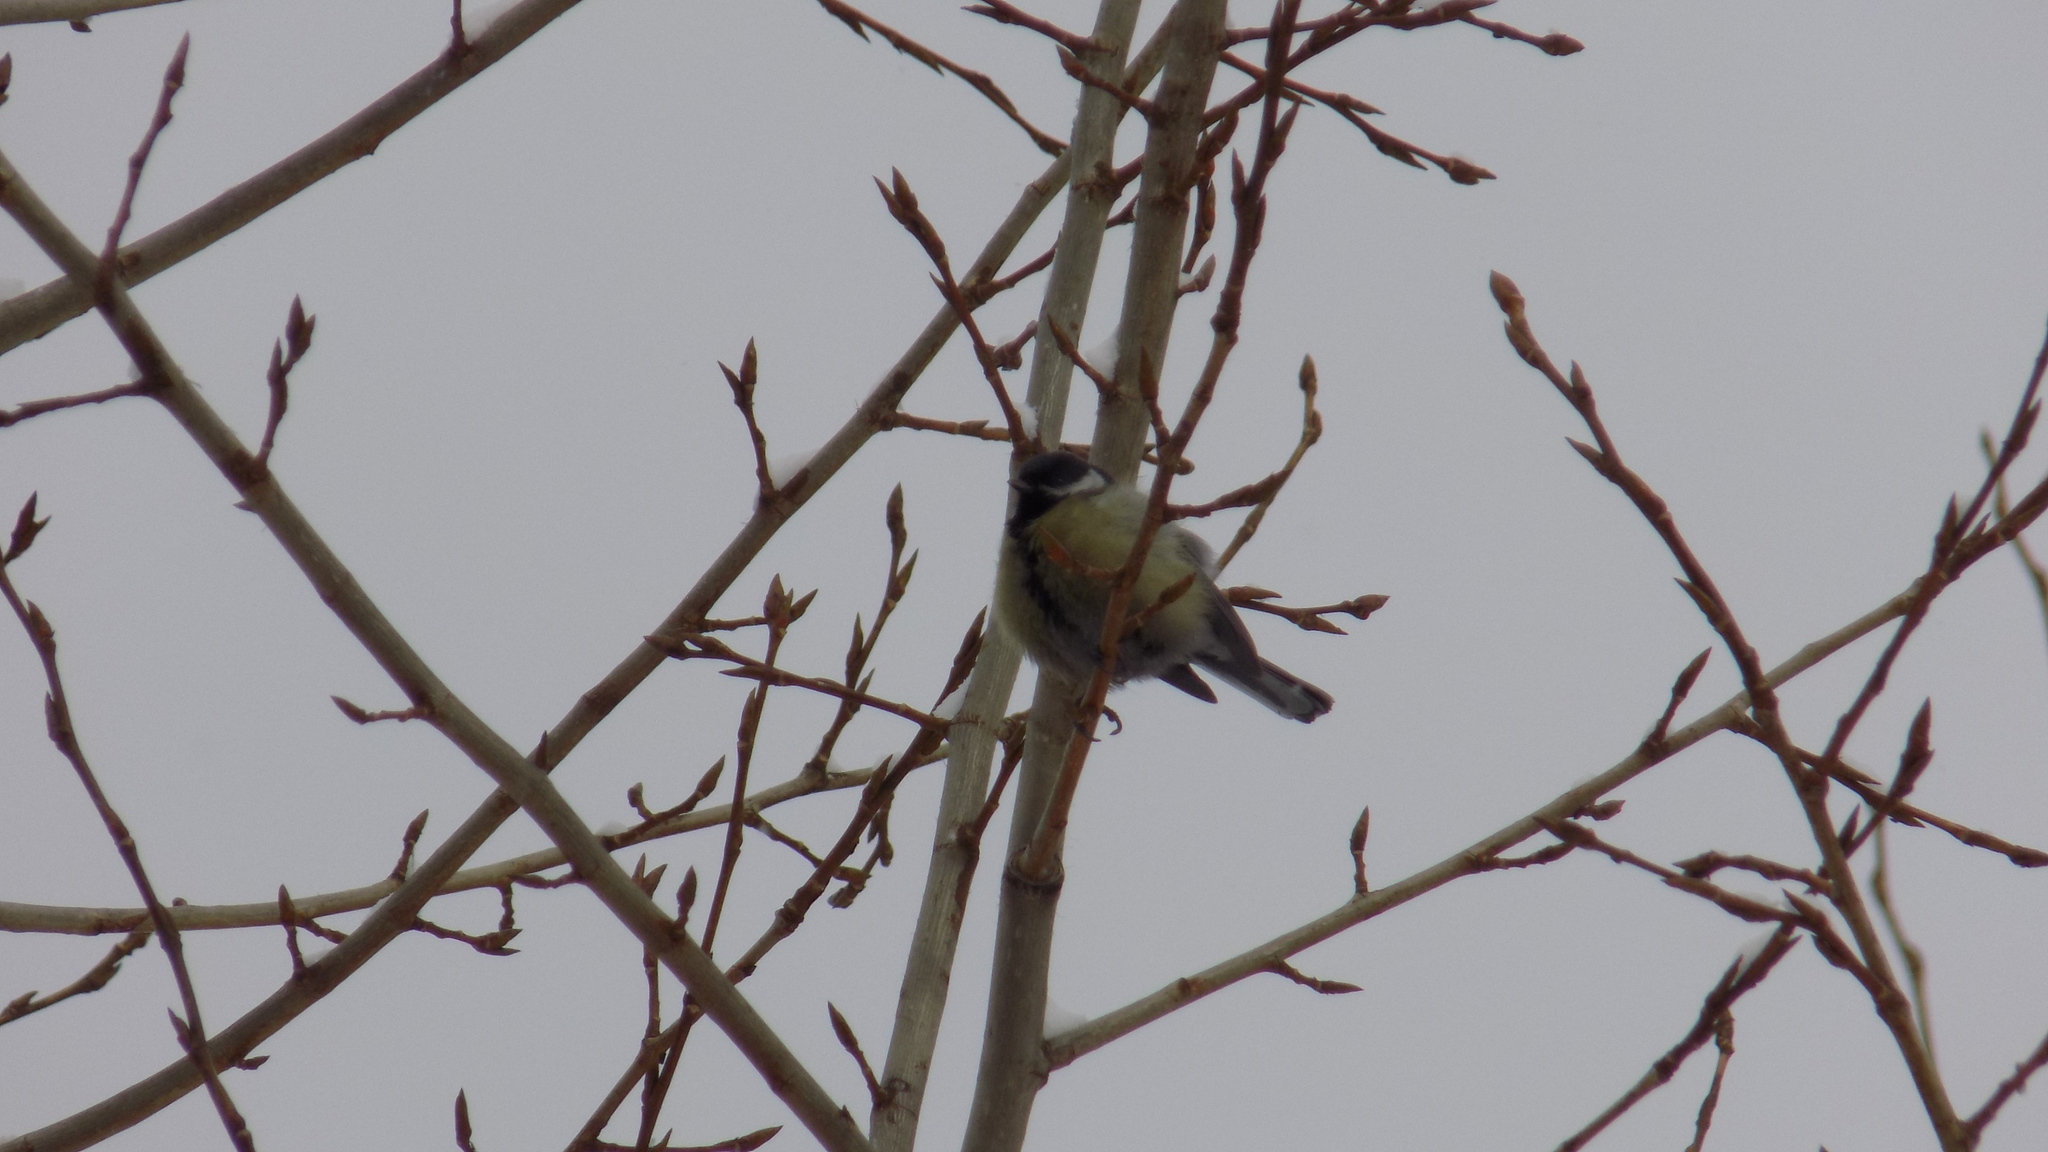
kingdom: Animalia
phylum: Chordata
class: Aves
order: Passeriformes
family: Paridae
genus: Parus
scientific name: Parus major
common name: Great tit
